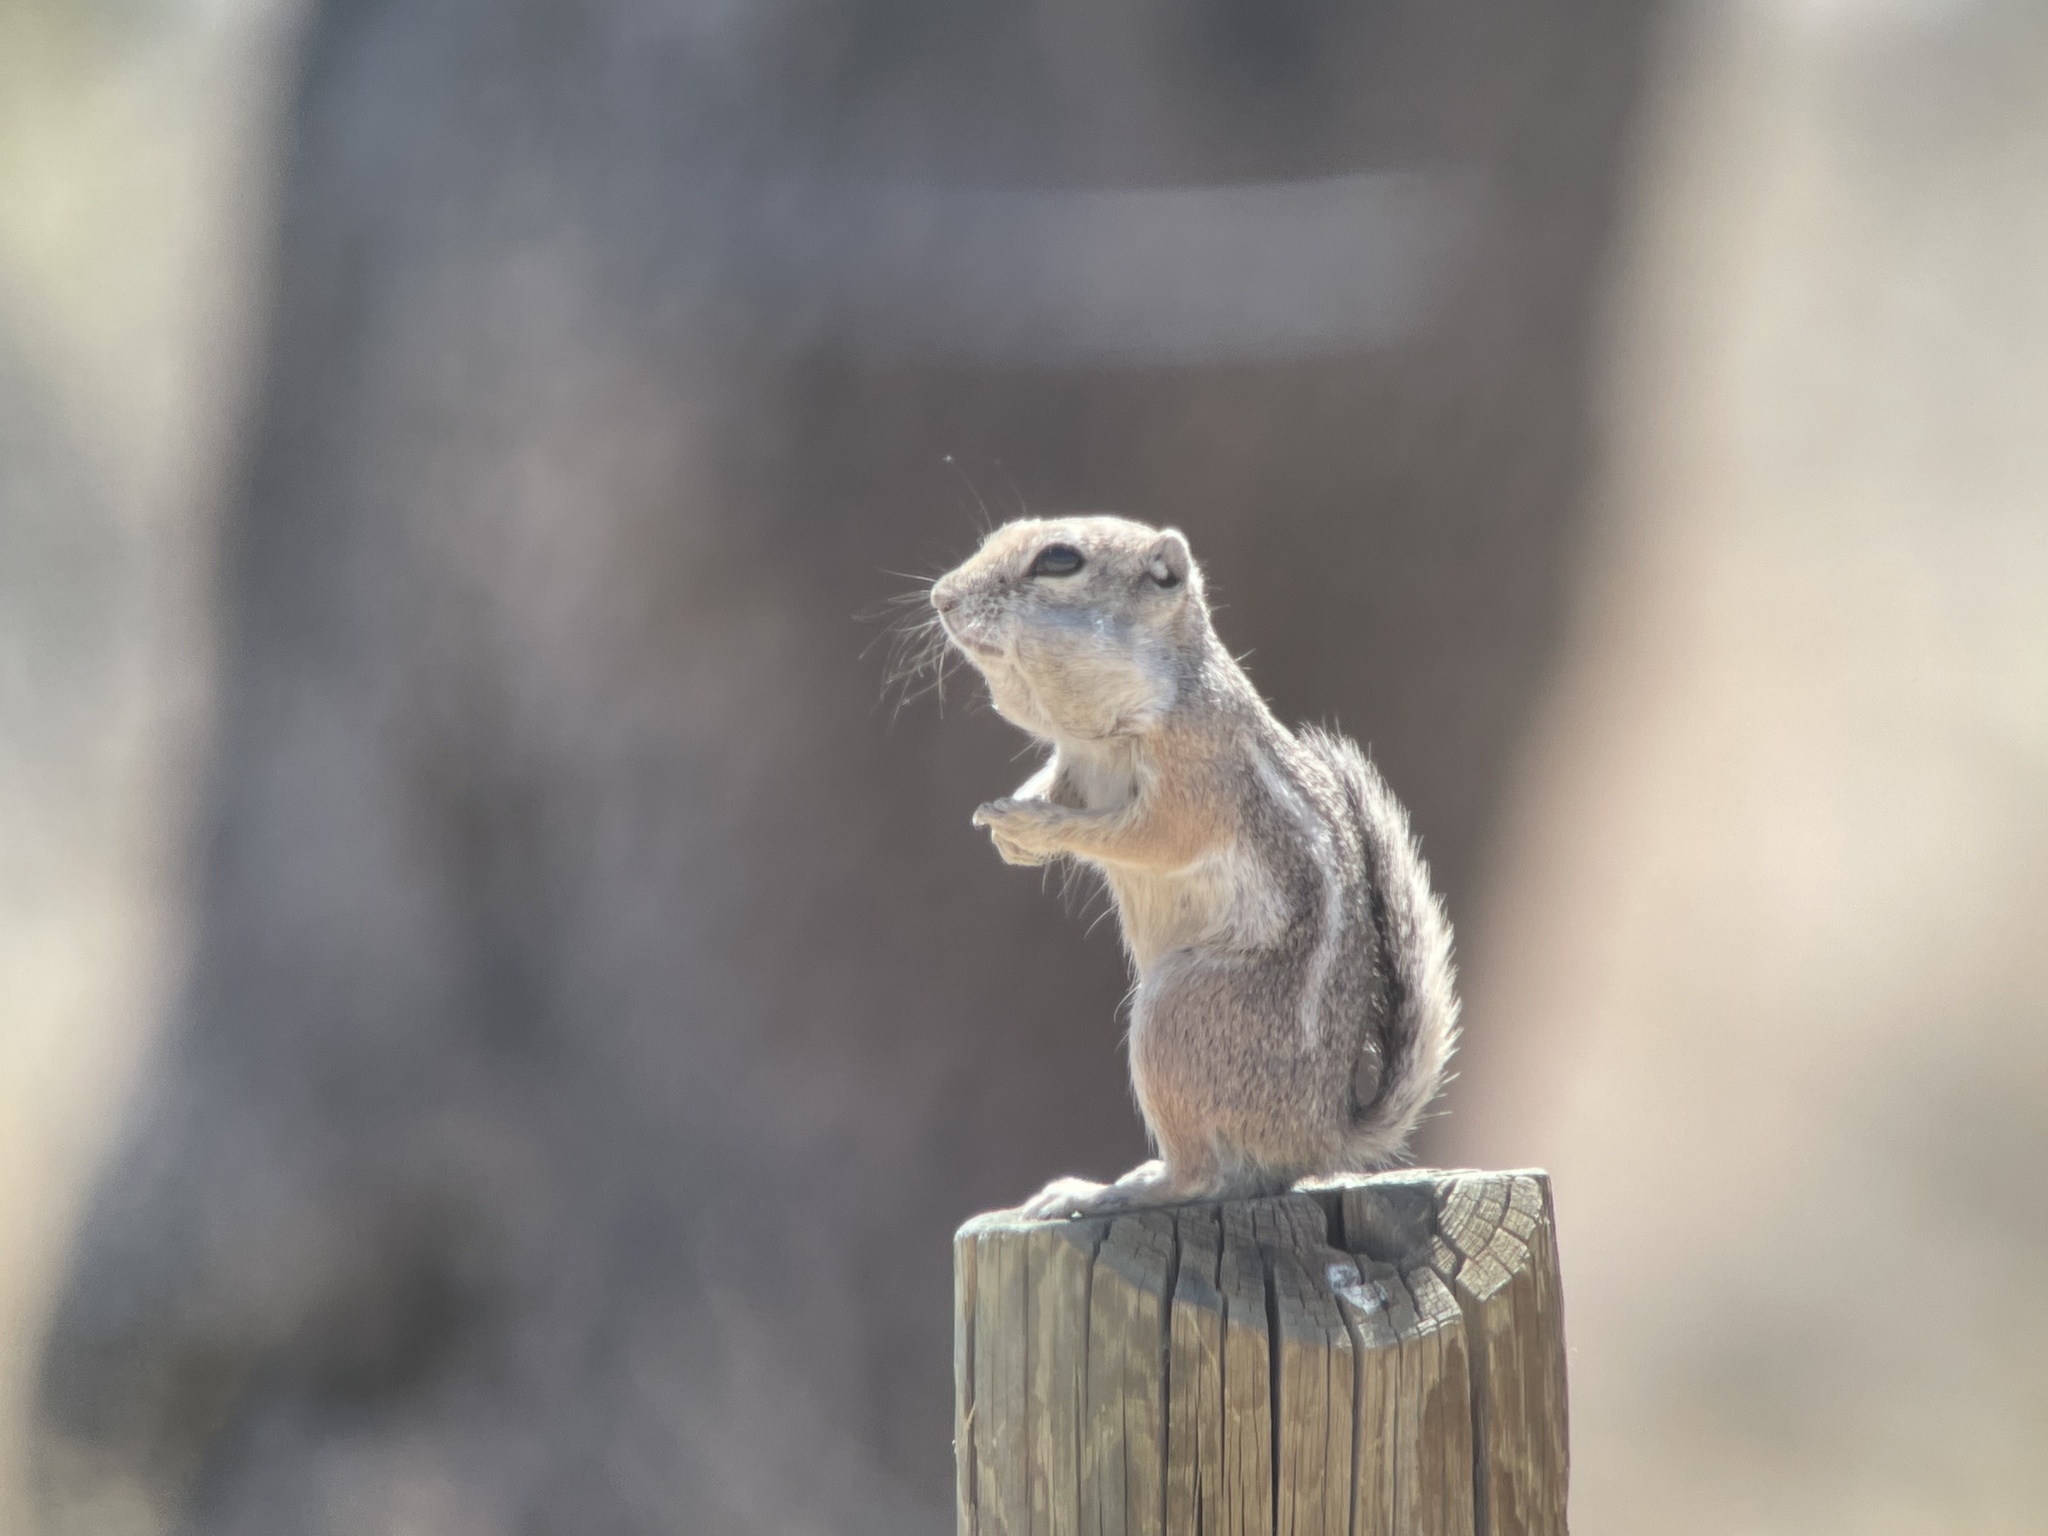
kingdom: Animalia
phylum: Chordata
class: Mammalia
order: Rodentia
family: Sciuridae
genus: Ammospermophilus
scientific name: Ammospermophilus leucurus
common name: White-tailed antelope squirrel
